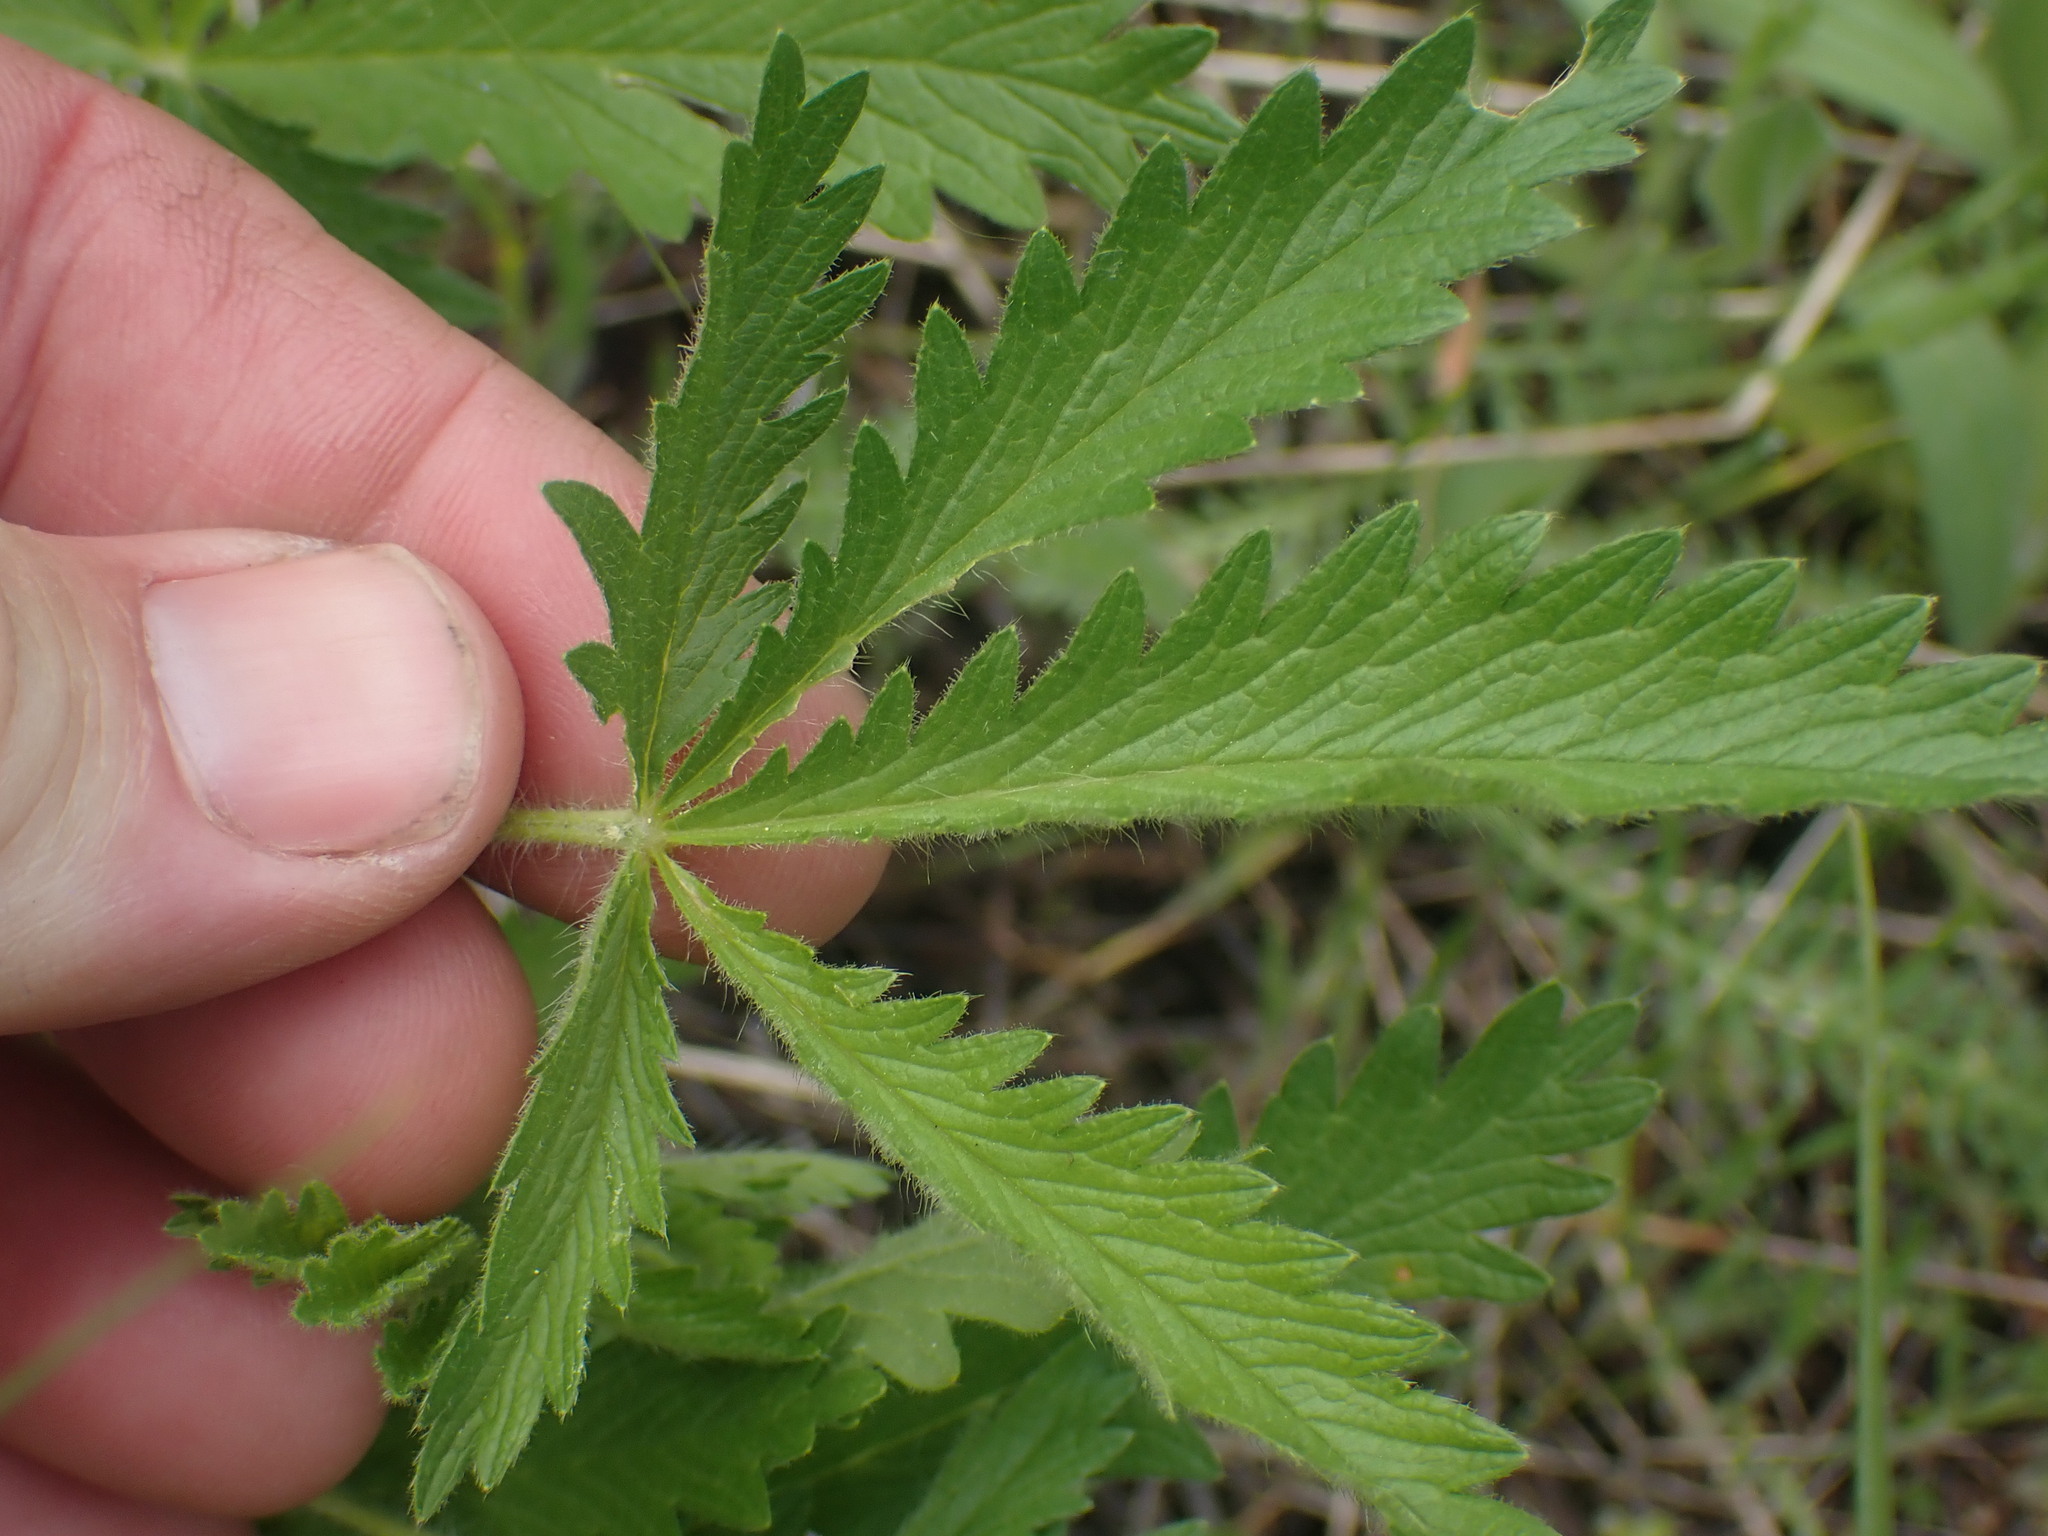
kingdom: Plantae
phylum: Tracheophyta
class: Magnoliopsida
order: Rosales
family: Rosaceae
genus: Potentilla
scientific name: Potentilla recta
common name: Sulphur cinquefoil
